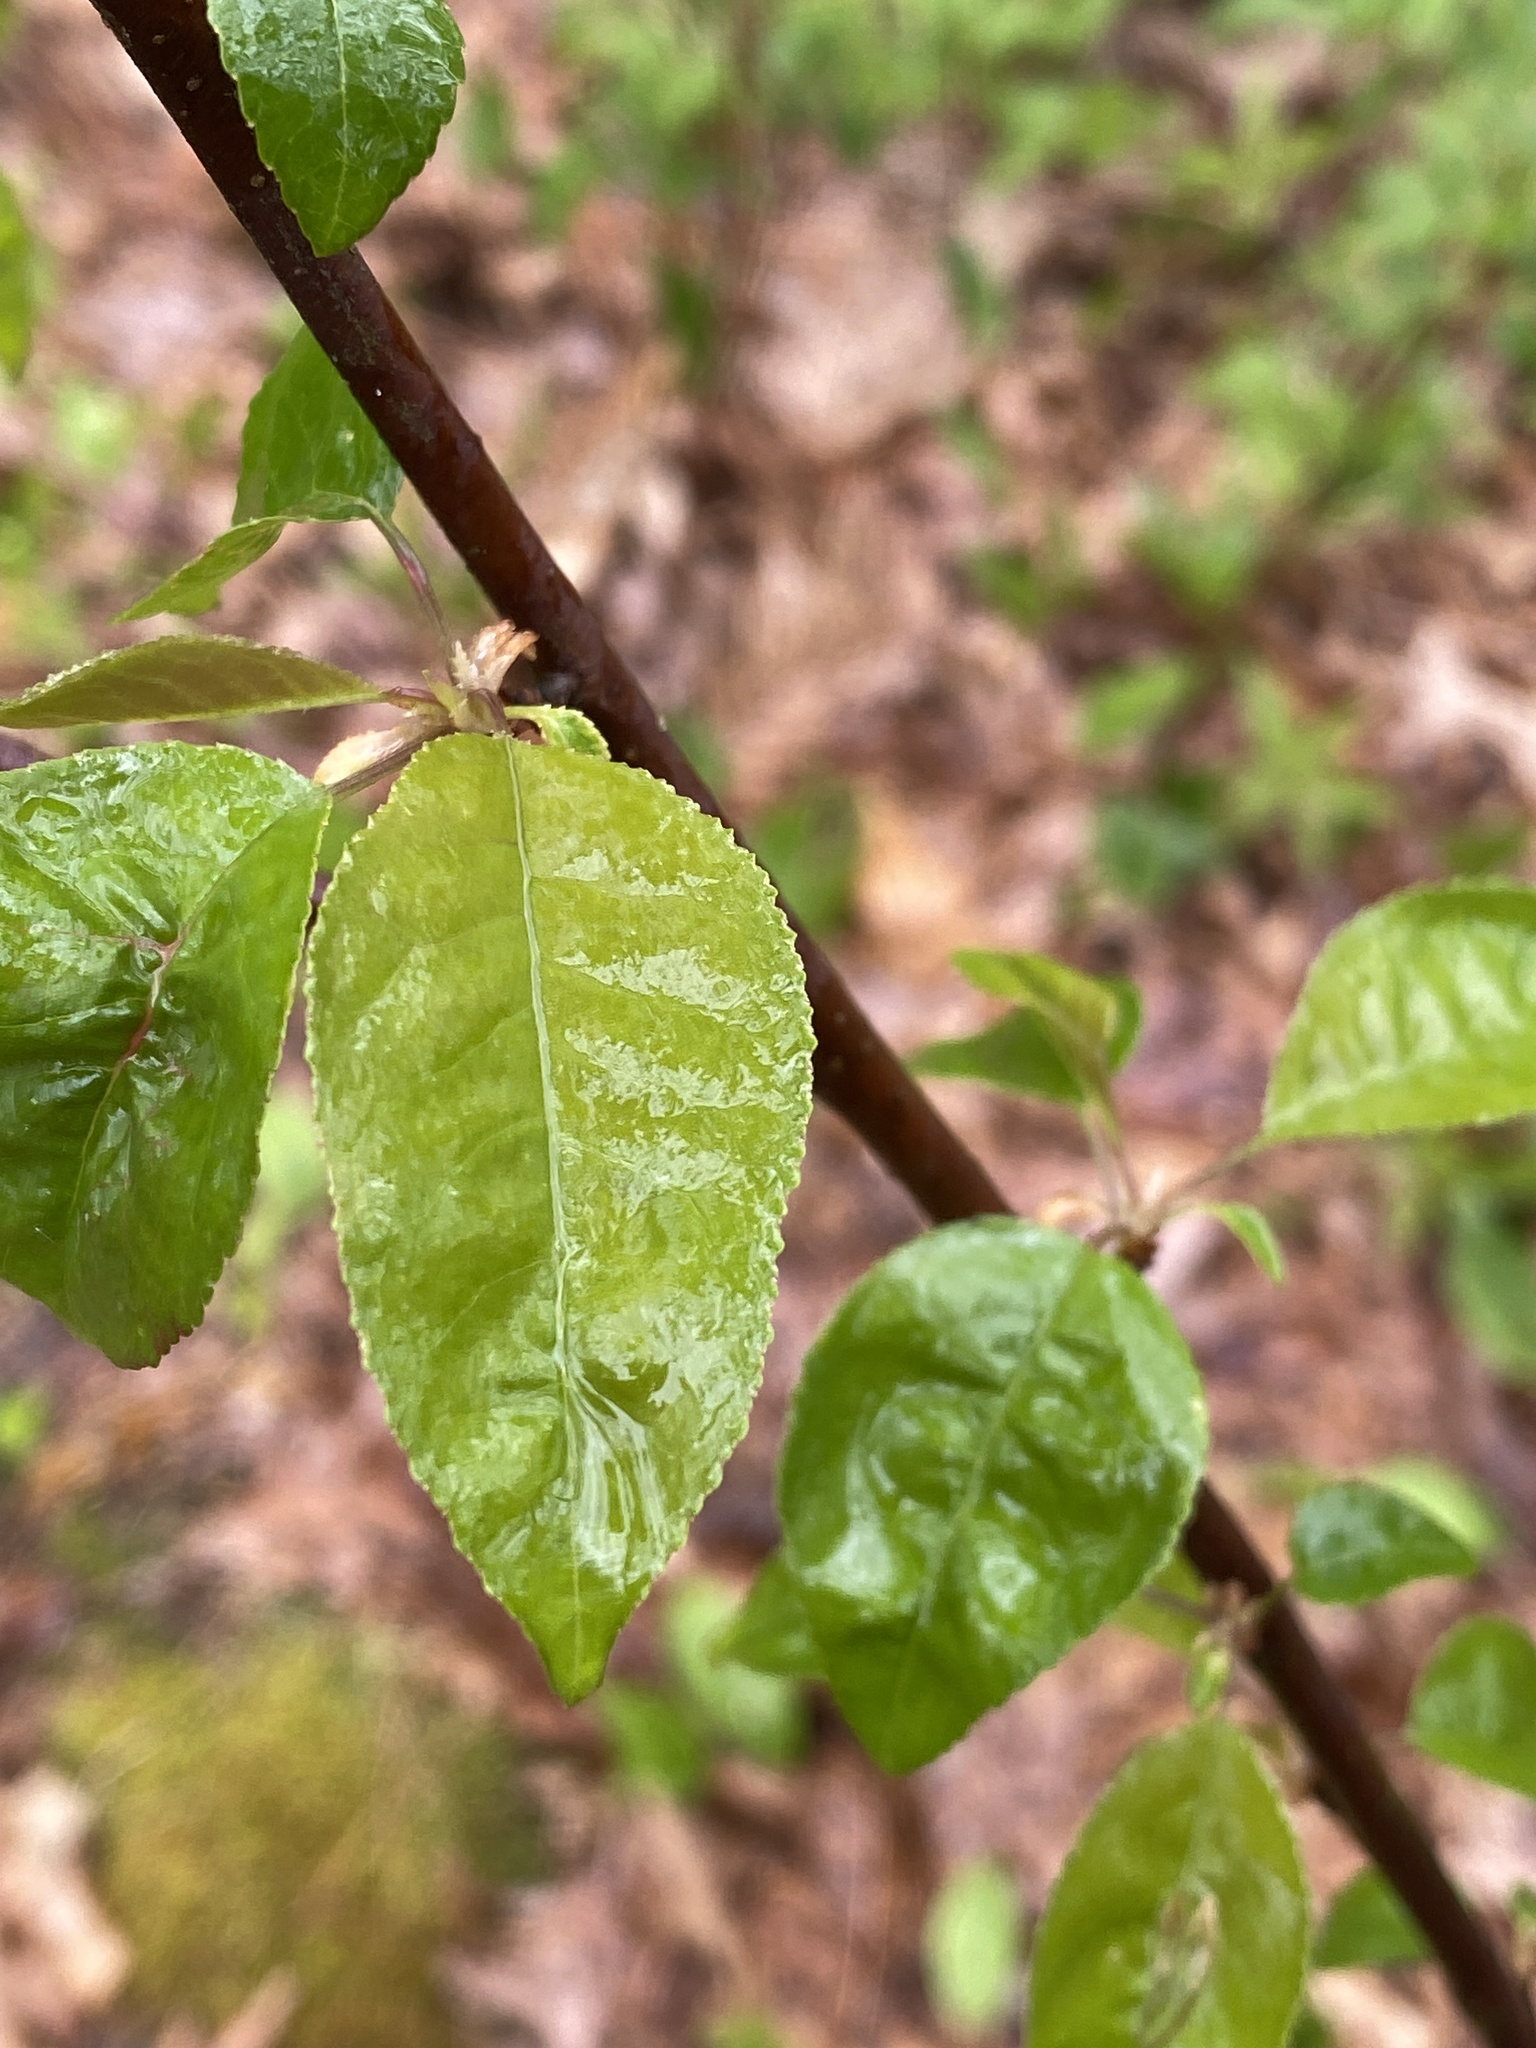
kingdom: Plantae
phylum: Tracheophyta
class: Magnoliopsida
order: Rosales
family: Rosaceae
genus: Prunus
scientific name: Prunus pensylvanica
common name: Pin cherry
